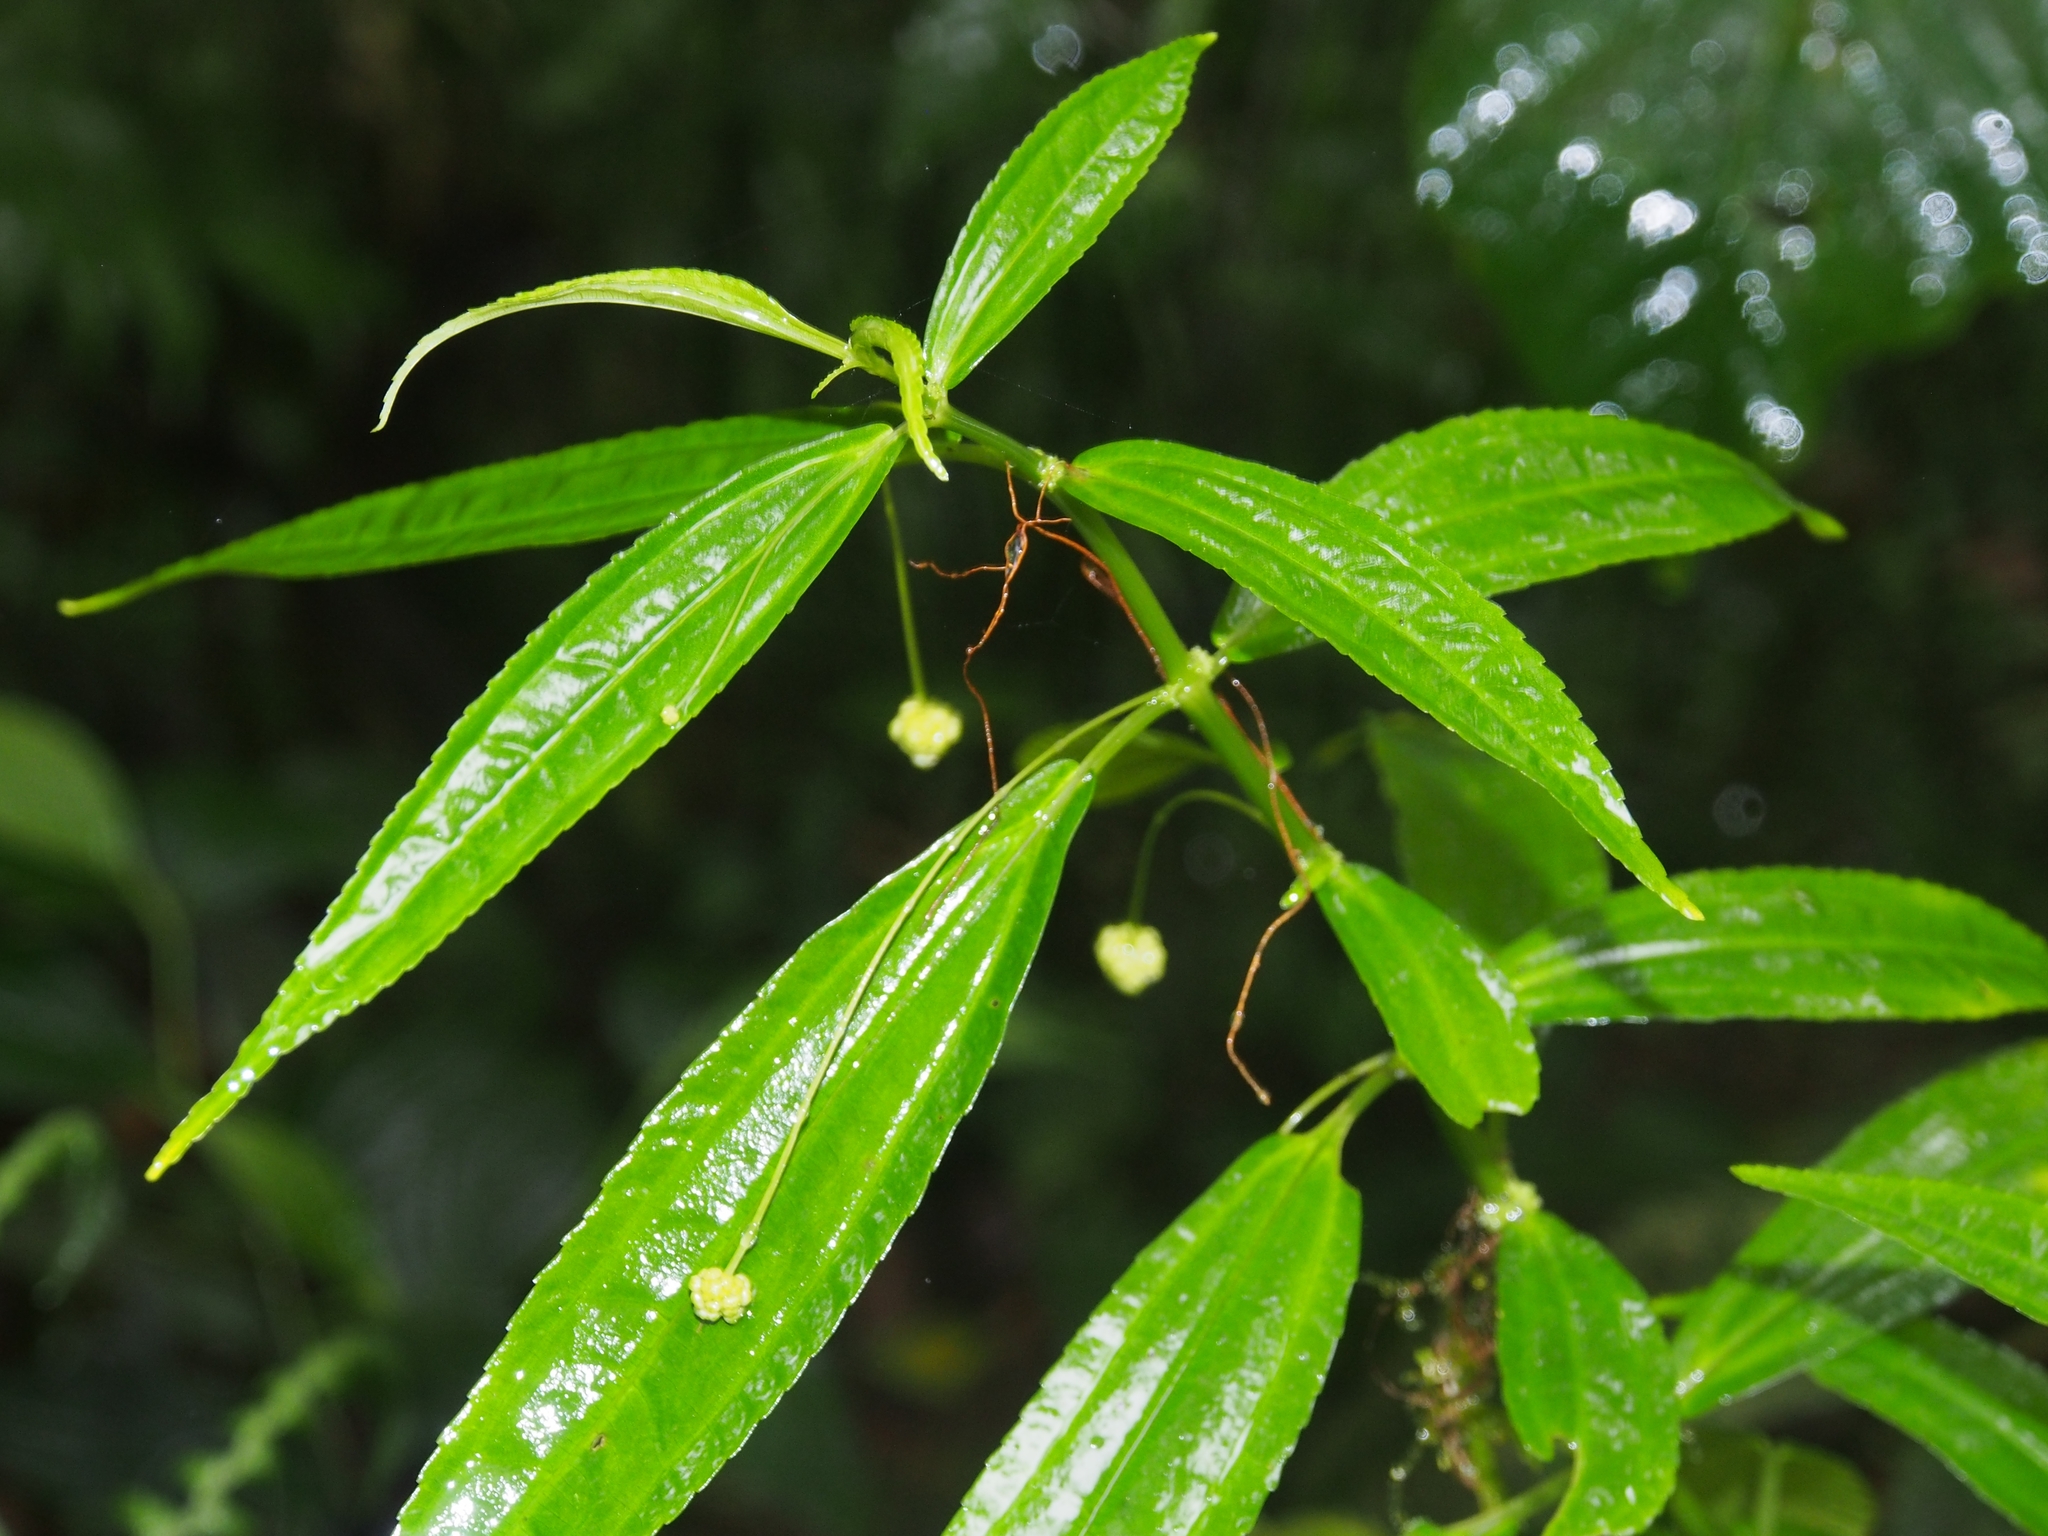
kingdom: Plantae
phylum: Tracheophyta
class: Magnoliopsida
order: Rosales
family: Urticaceae
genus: Pilea
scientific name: Pilea angustifolia
